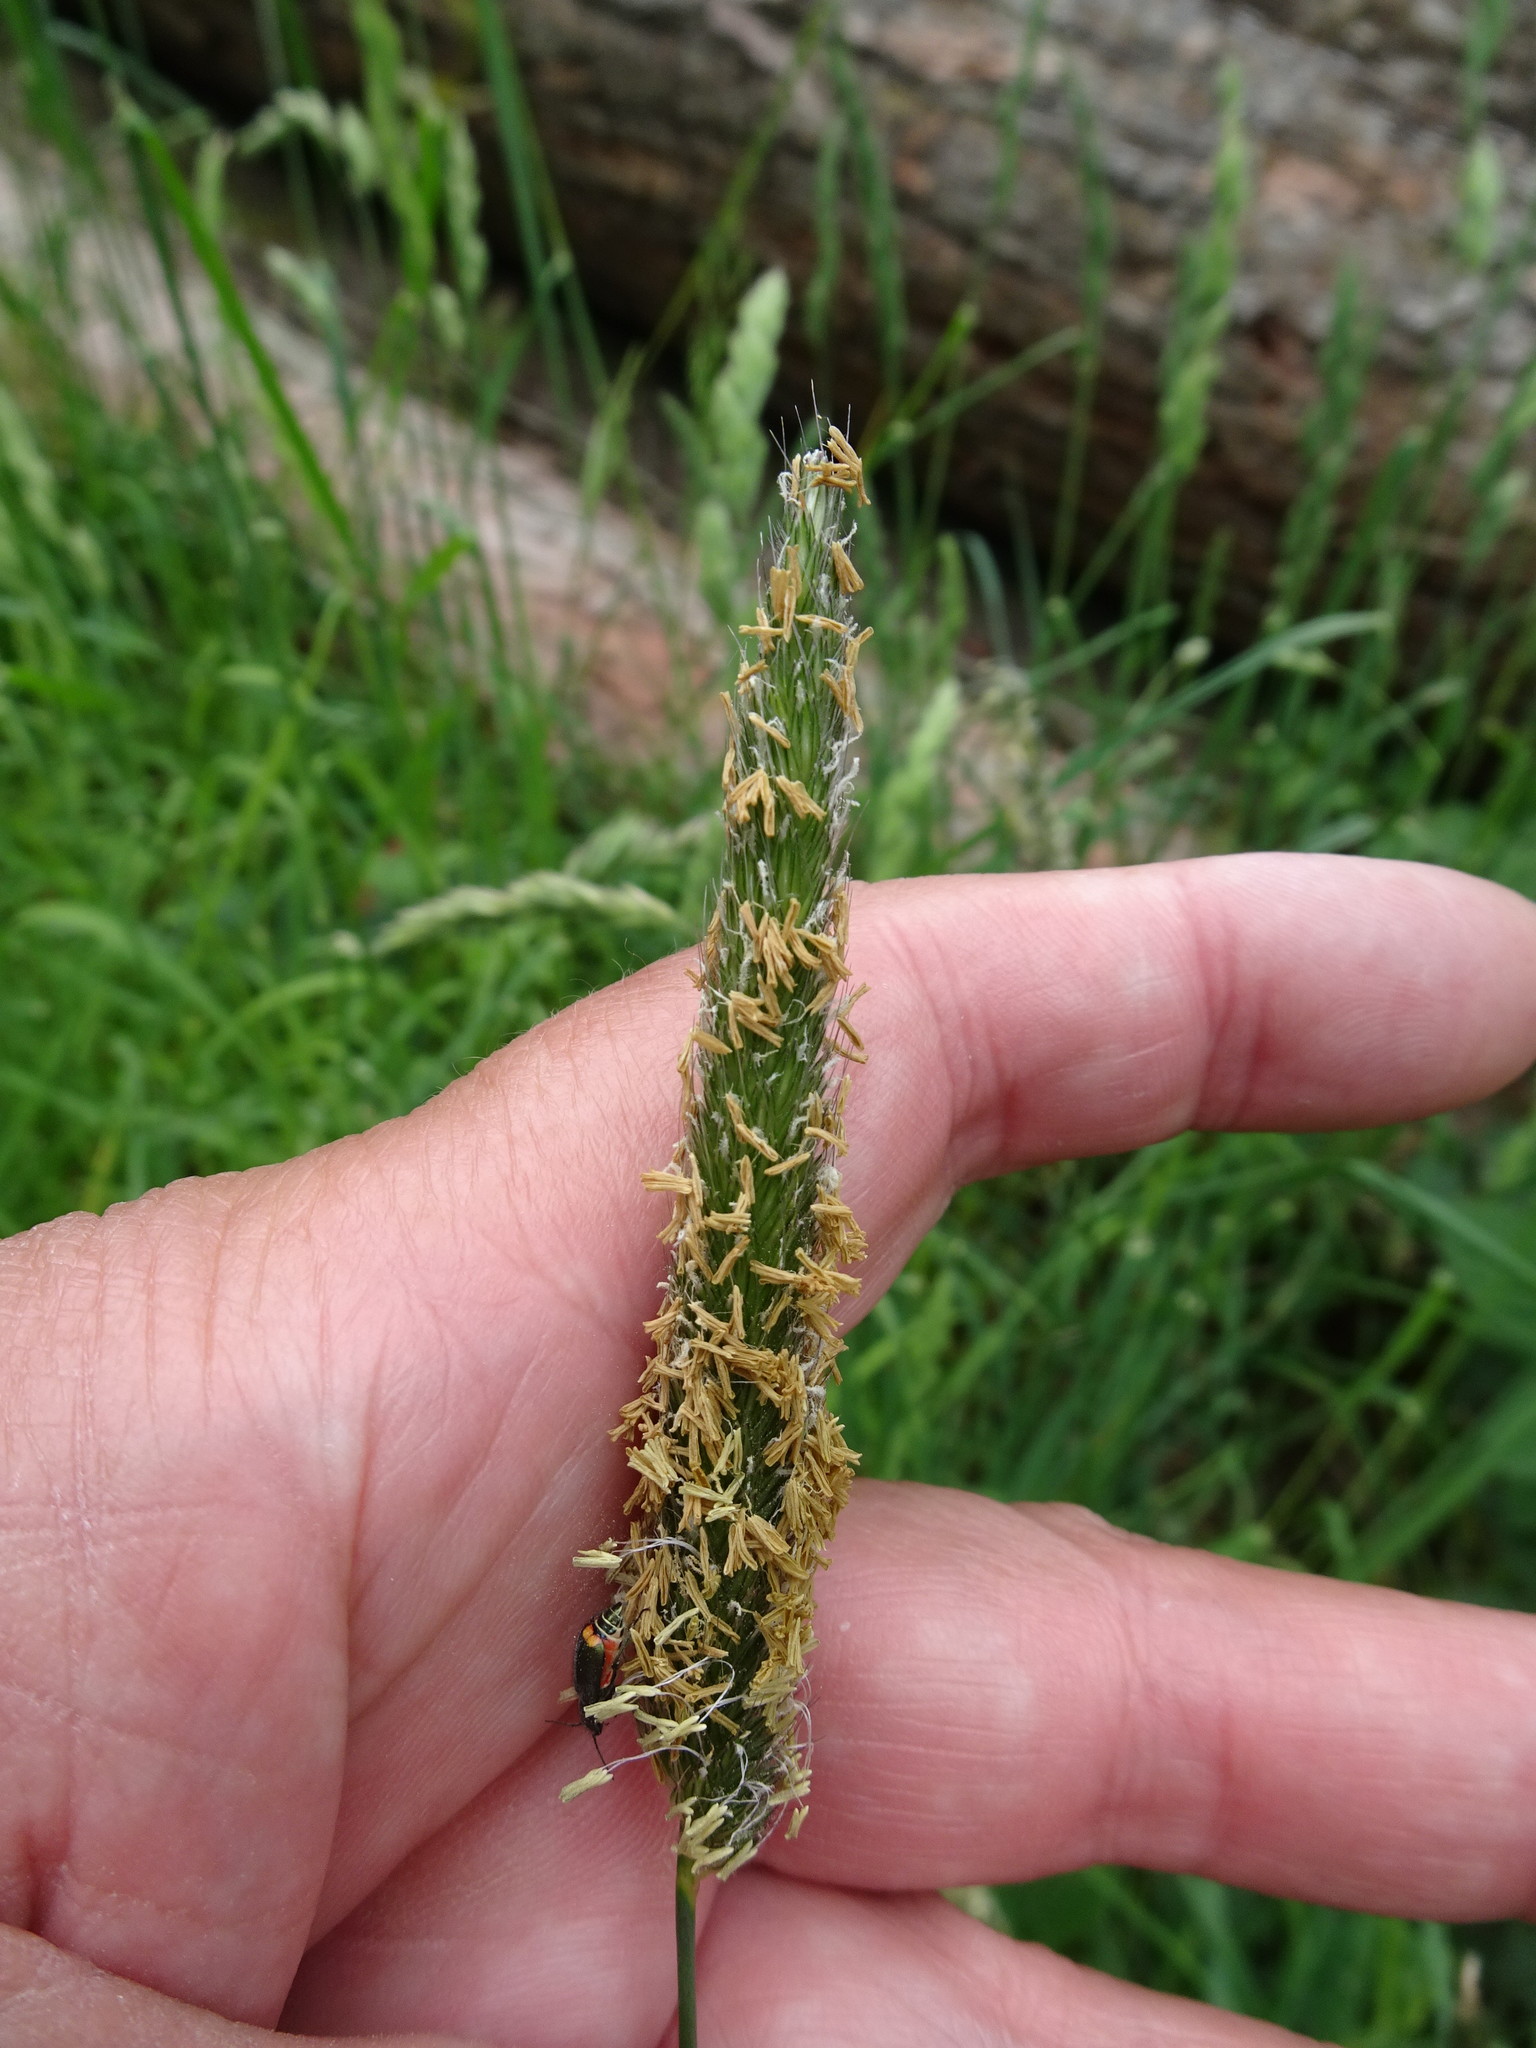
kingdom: Plantae
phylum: Tracheophyta
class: Liliopsida
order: Poales
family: Poaceae
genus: Alopecurus
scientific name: Alopecurus pratensis
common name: Meadow foxtail
